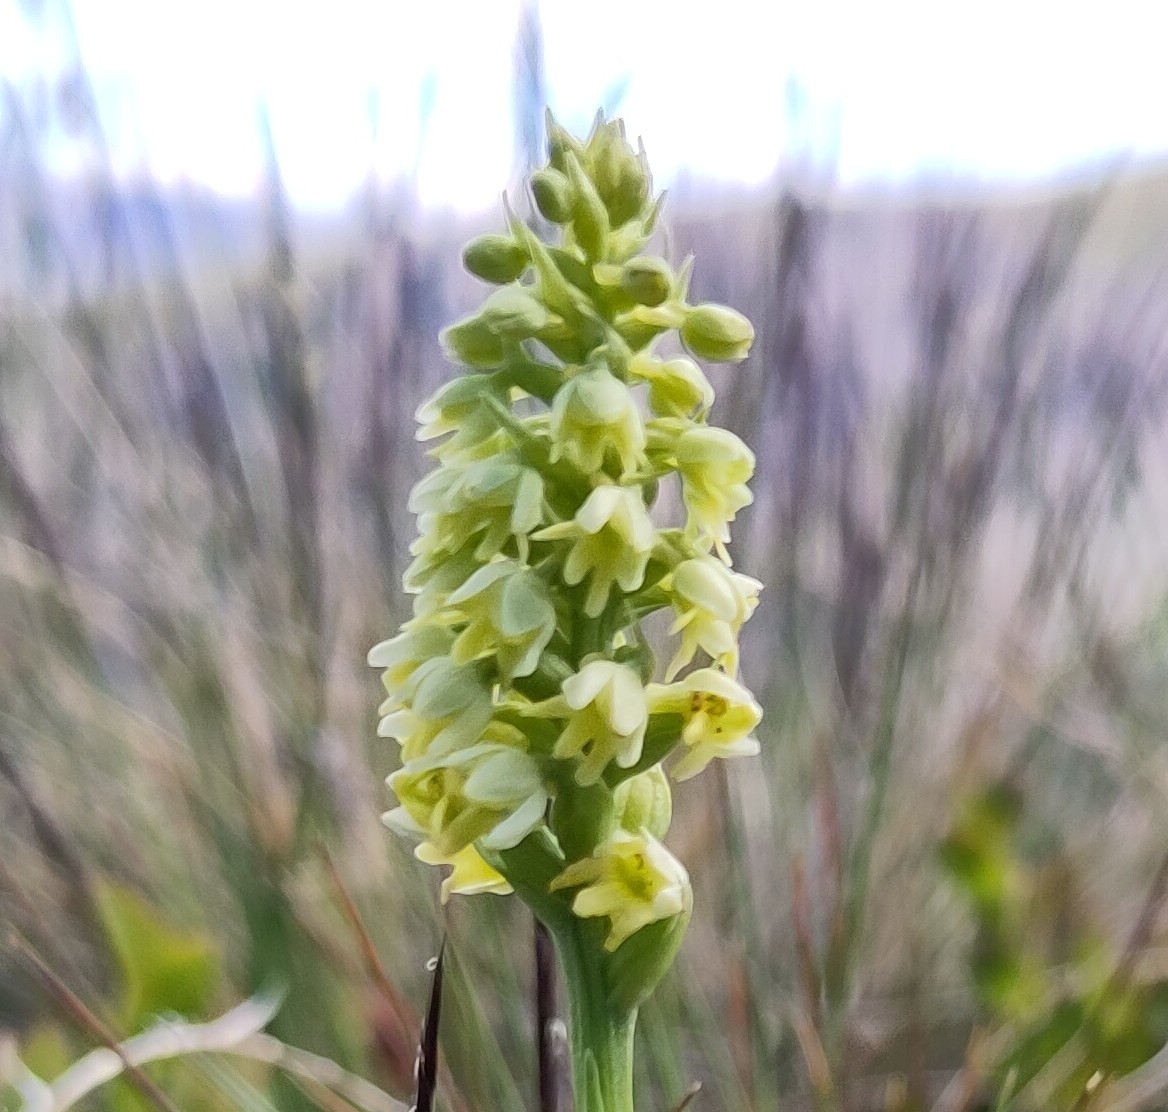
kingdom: Plantae
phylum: Tracheophyta
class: Liliopsida
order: Asparagales
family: Orchidaceae
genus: Pseudorchis
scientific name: Pseudorchis albida
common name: Small-white orchid
